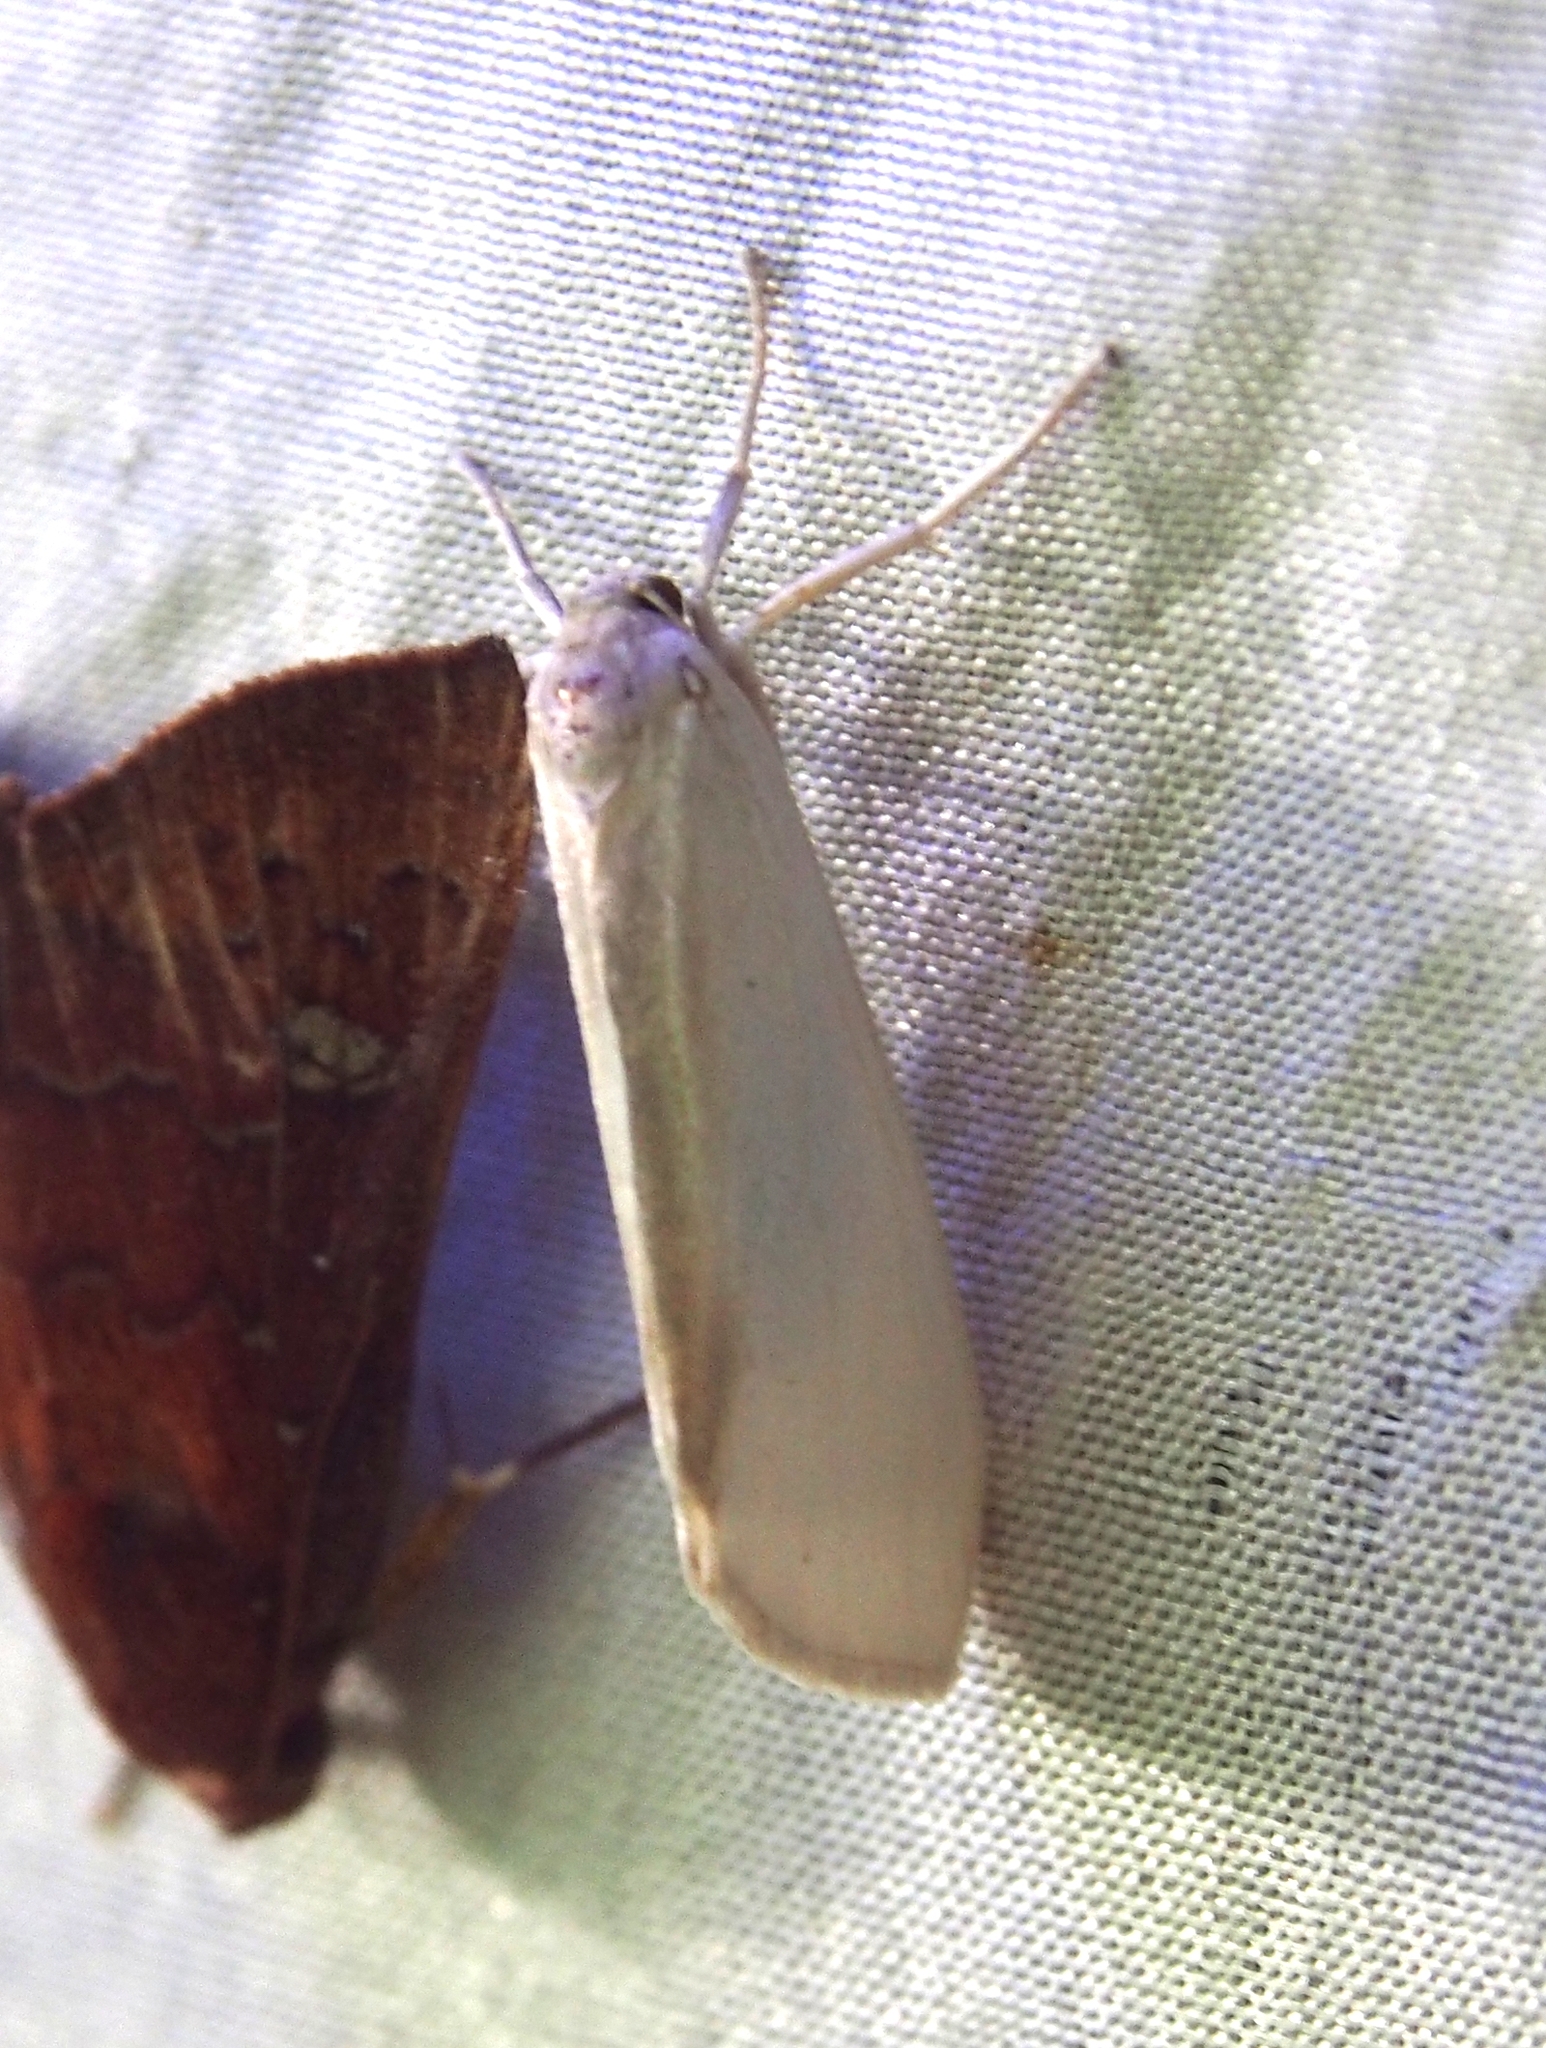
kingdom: Animalia
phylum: Arthropoda
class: Insecta
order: Lepidoptera
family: Erebidae
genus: Agylla
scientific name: Agylla asra
